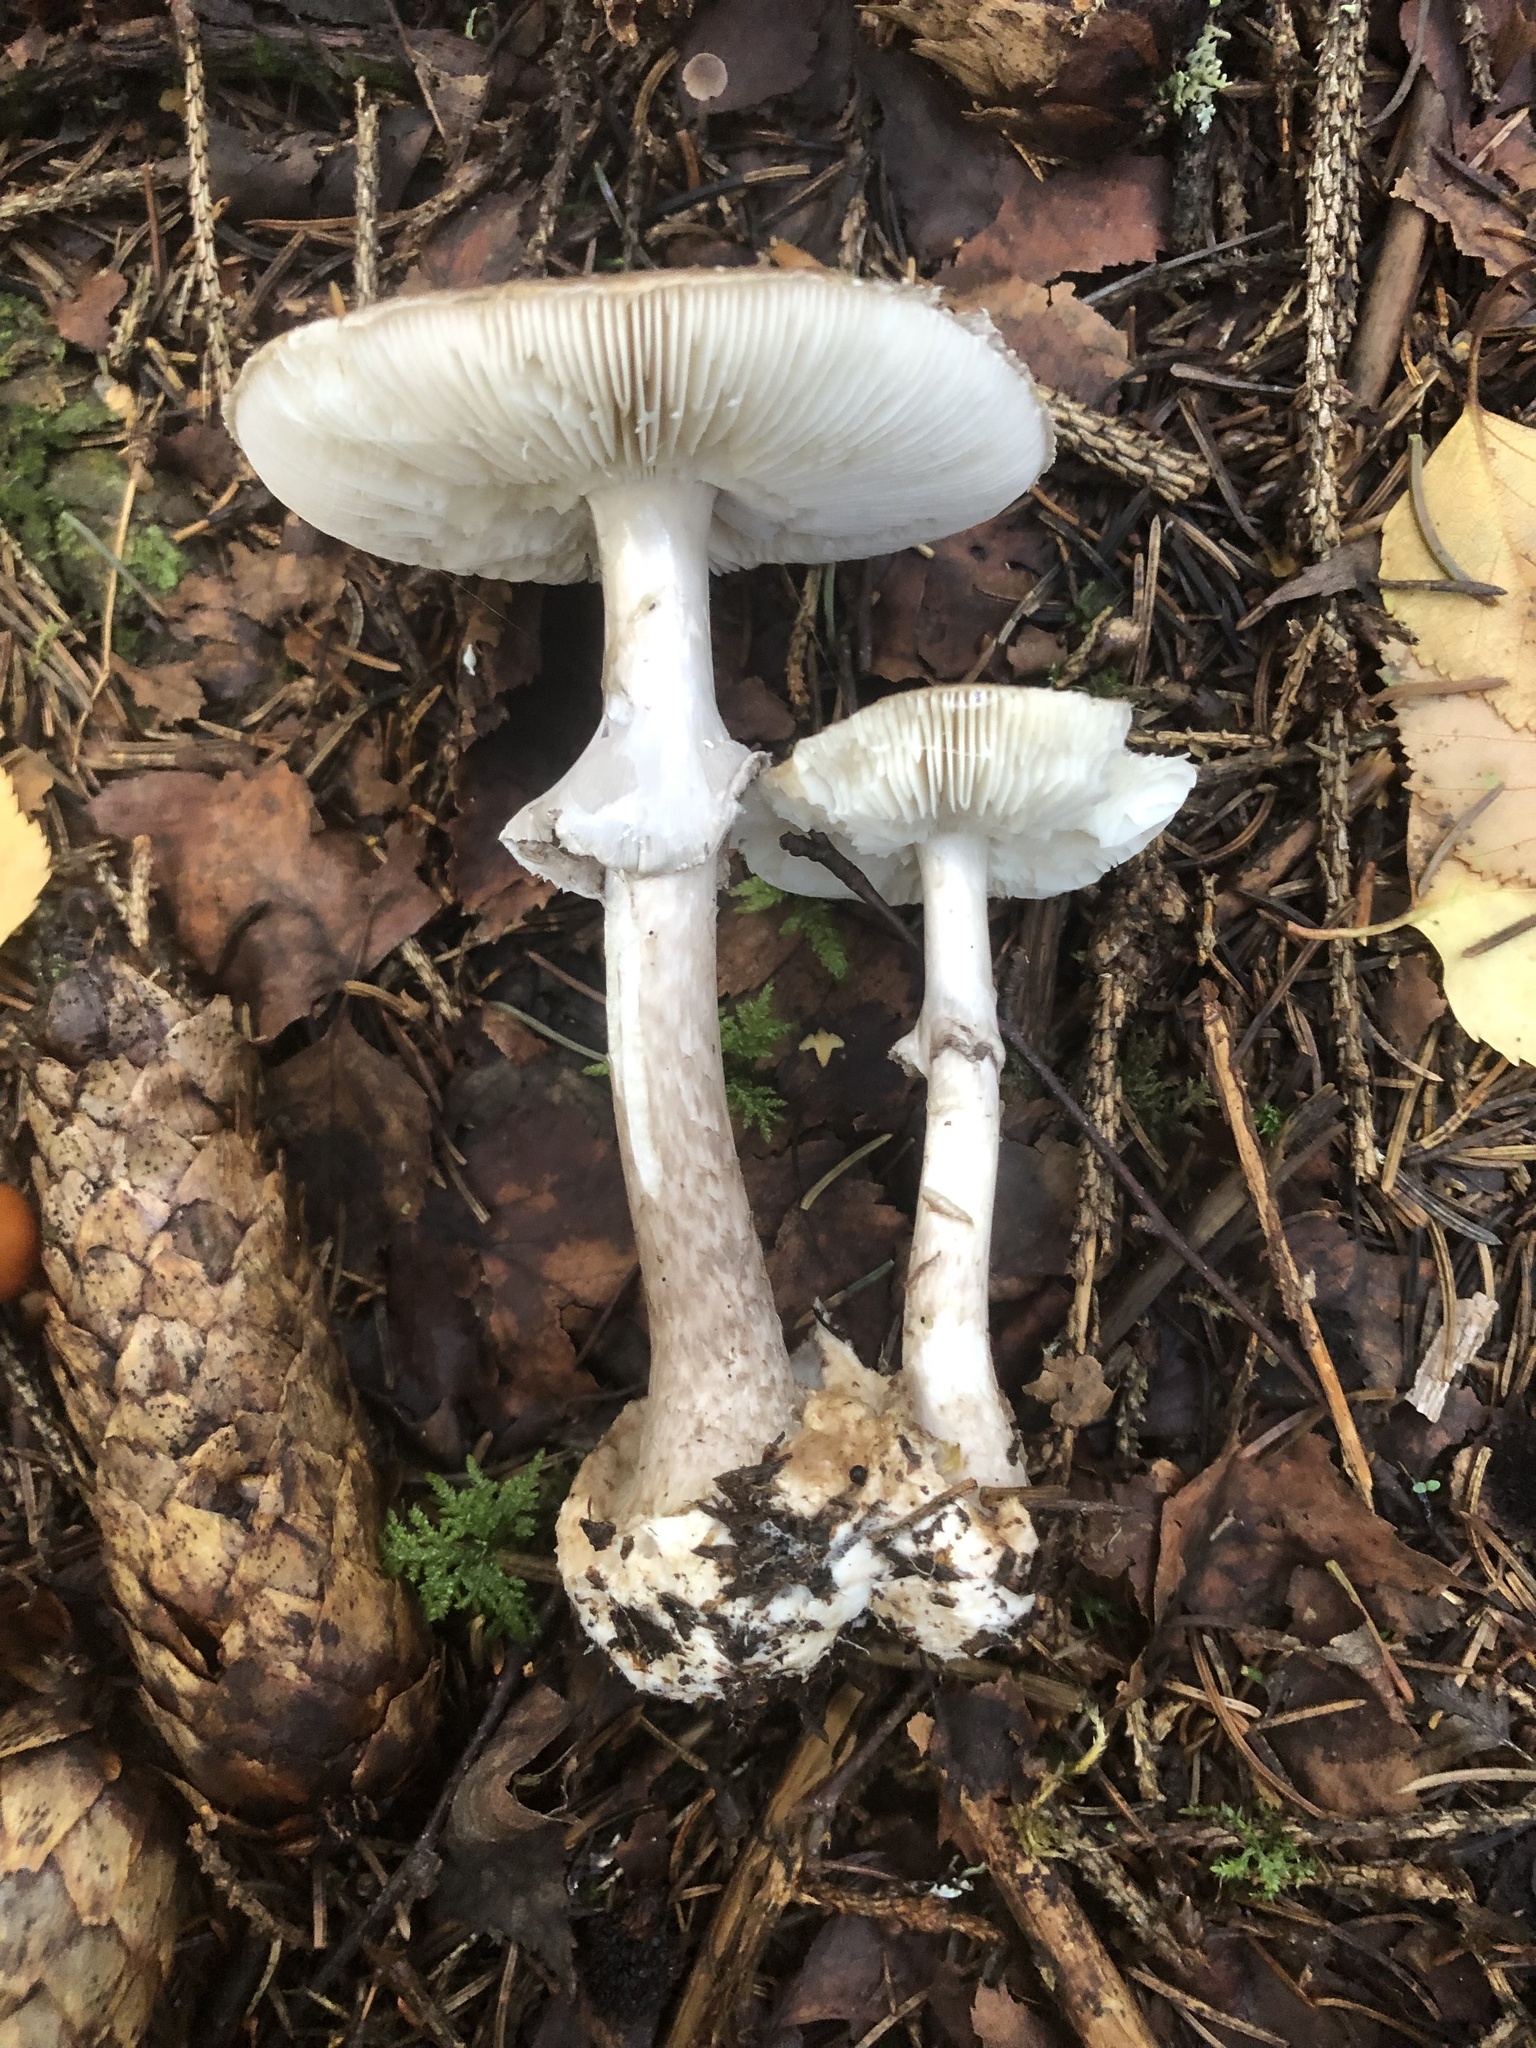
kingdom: Fungi
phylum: Basidiomycota
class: Agaricomycetes
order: Agaricales
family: Amanitaceae
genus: Amanita
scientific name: Amanita porphyria
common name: Grey veiled amanita
